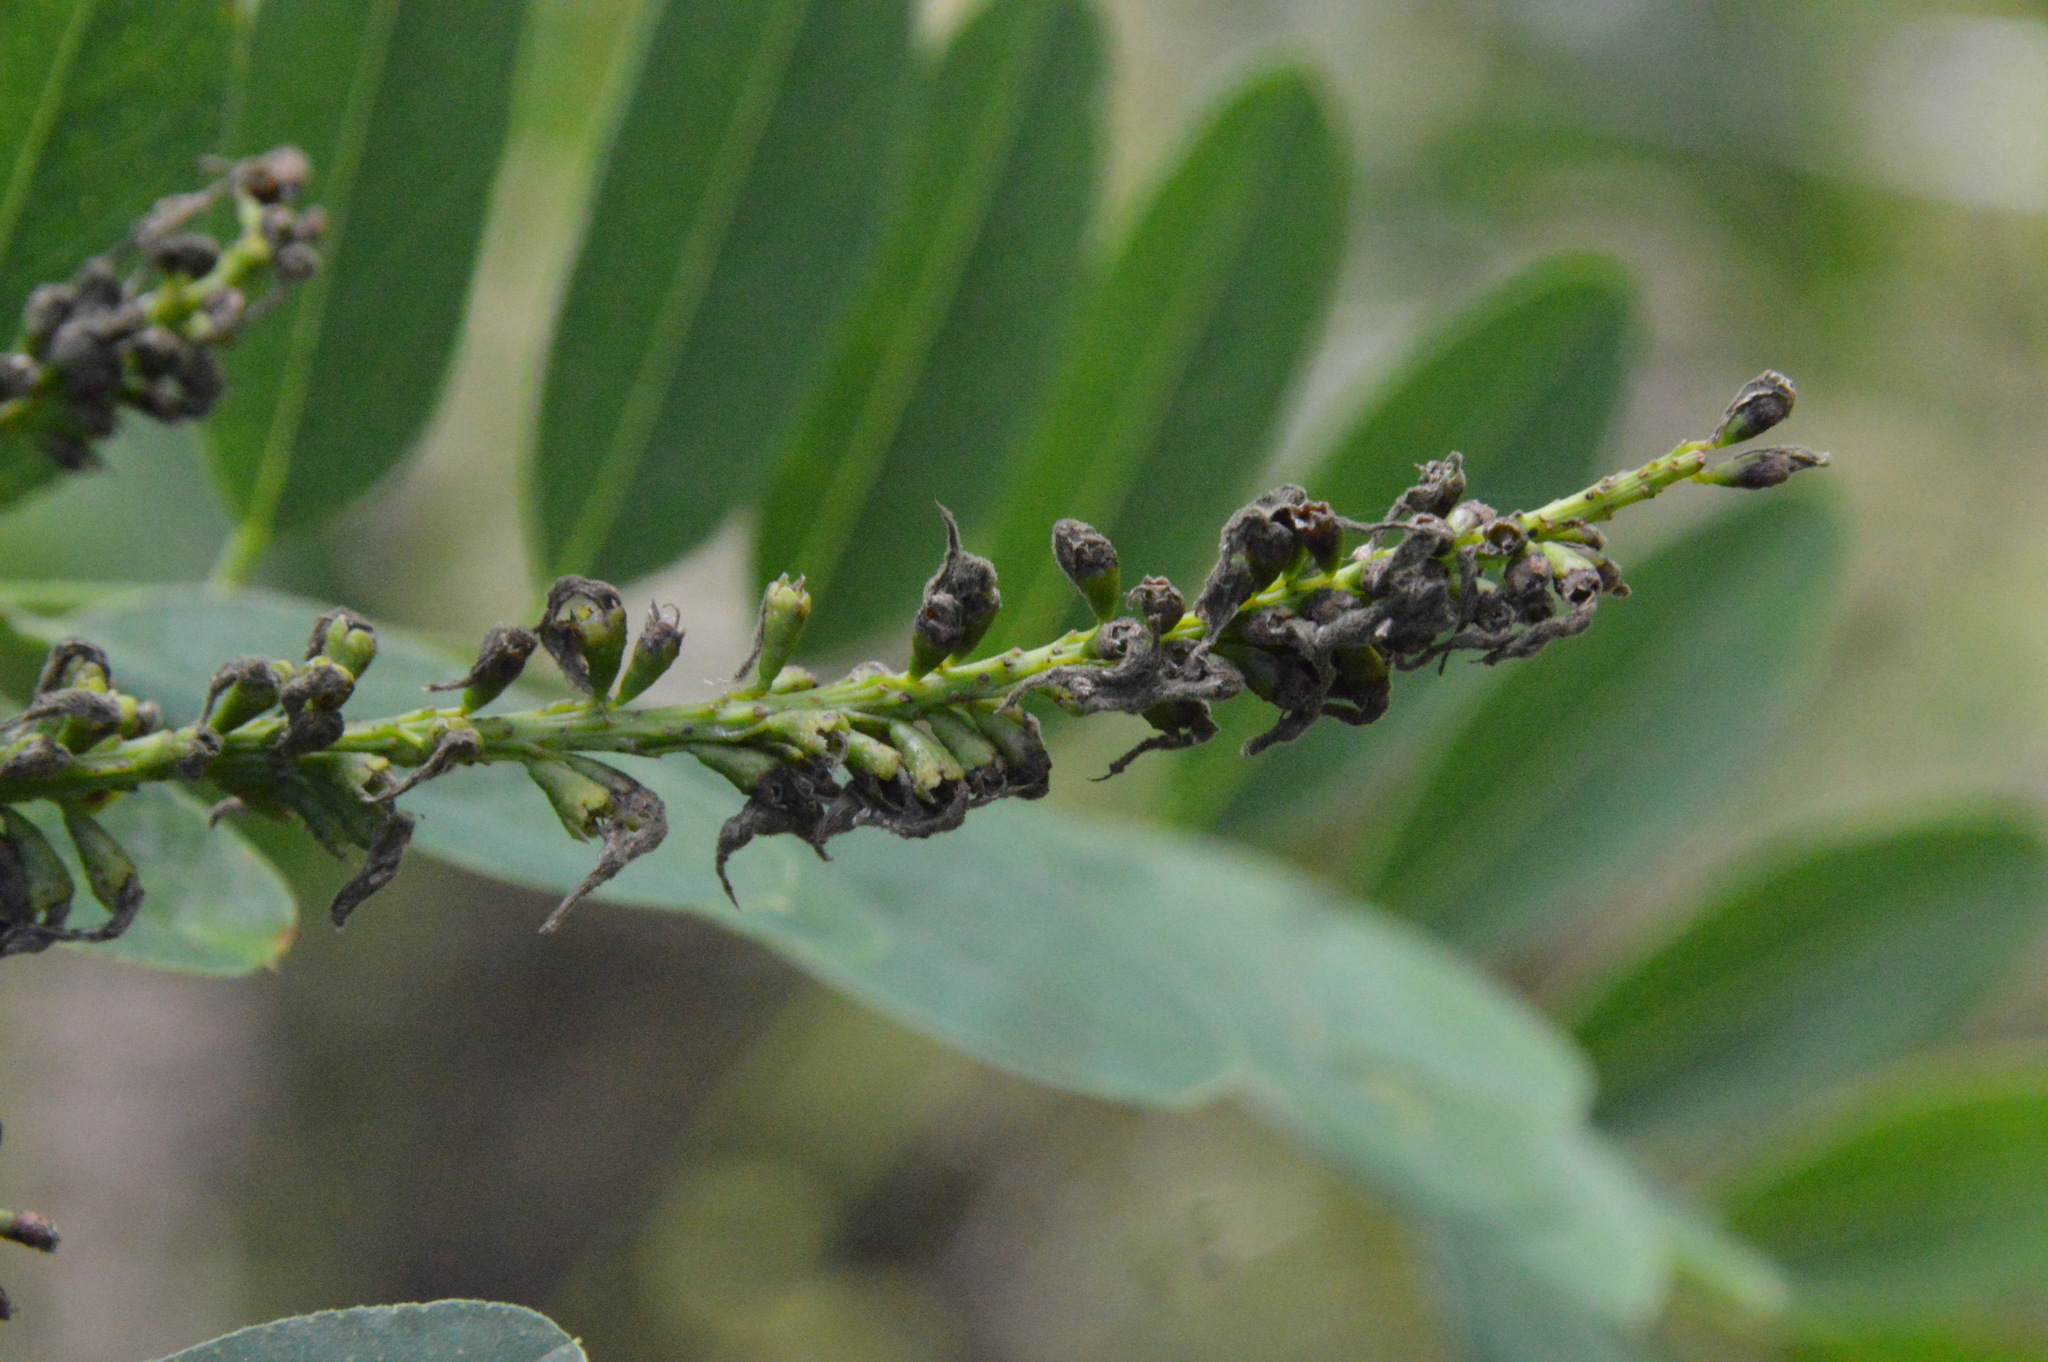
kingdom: Plantae
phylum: Tracheophyta
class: Magnoliopsida
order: Fabales
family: Fabaceae
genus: Amorpha
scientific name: Amorpha fruticosa
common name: False indigo
